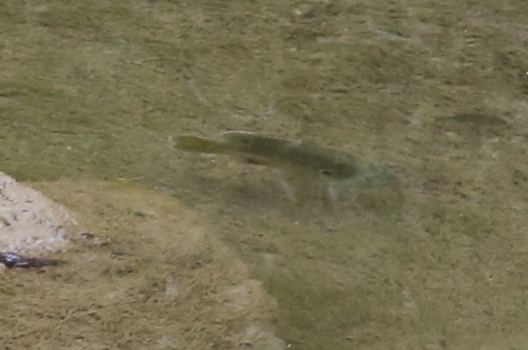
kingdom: Animalia
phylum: Chordata
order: Perciformes
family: Centrarchidae
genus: Lepomis
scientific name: Lepomis cyanellus
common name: Green sunfish
